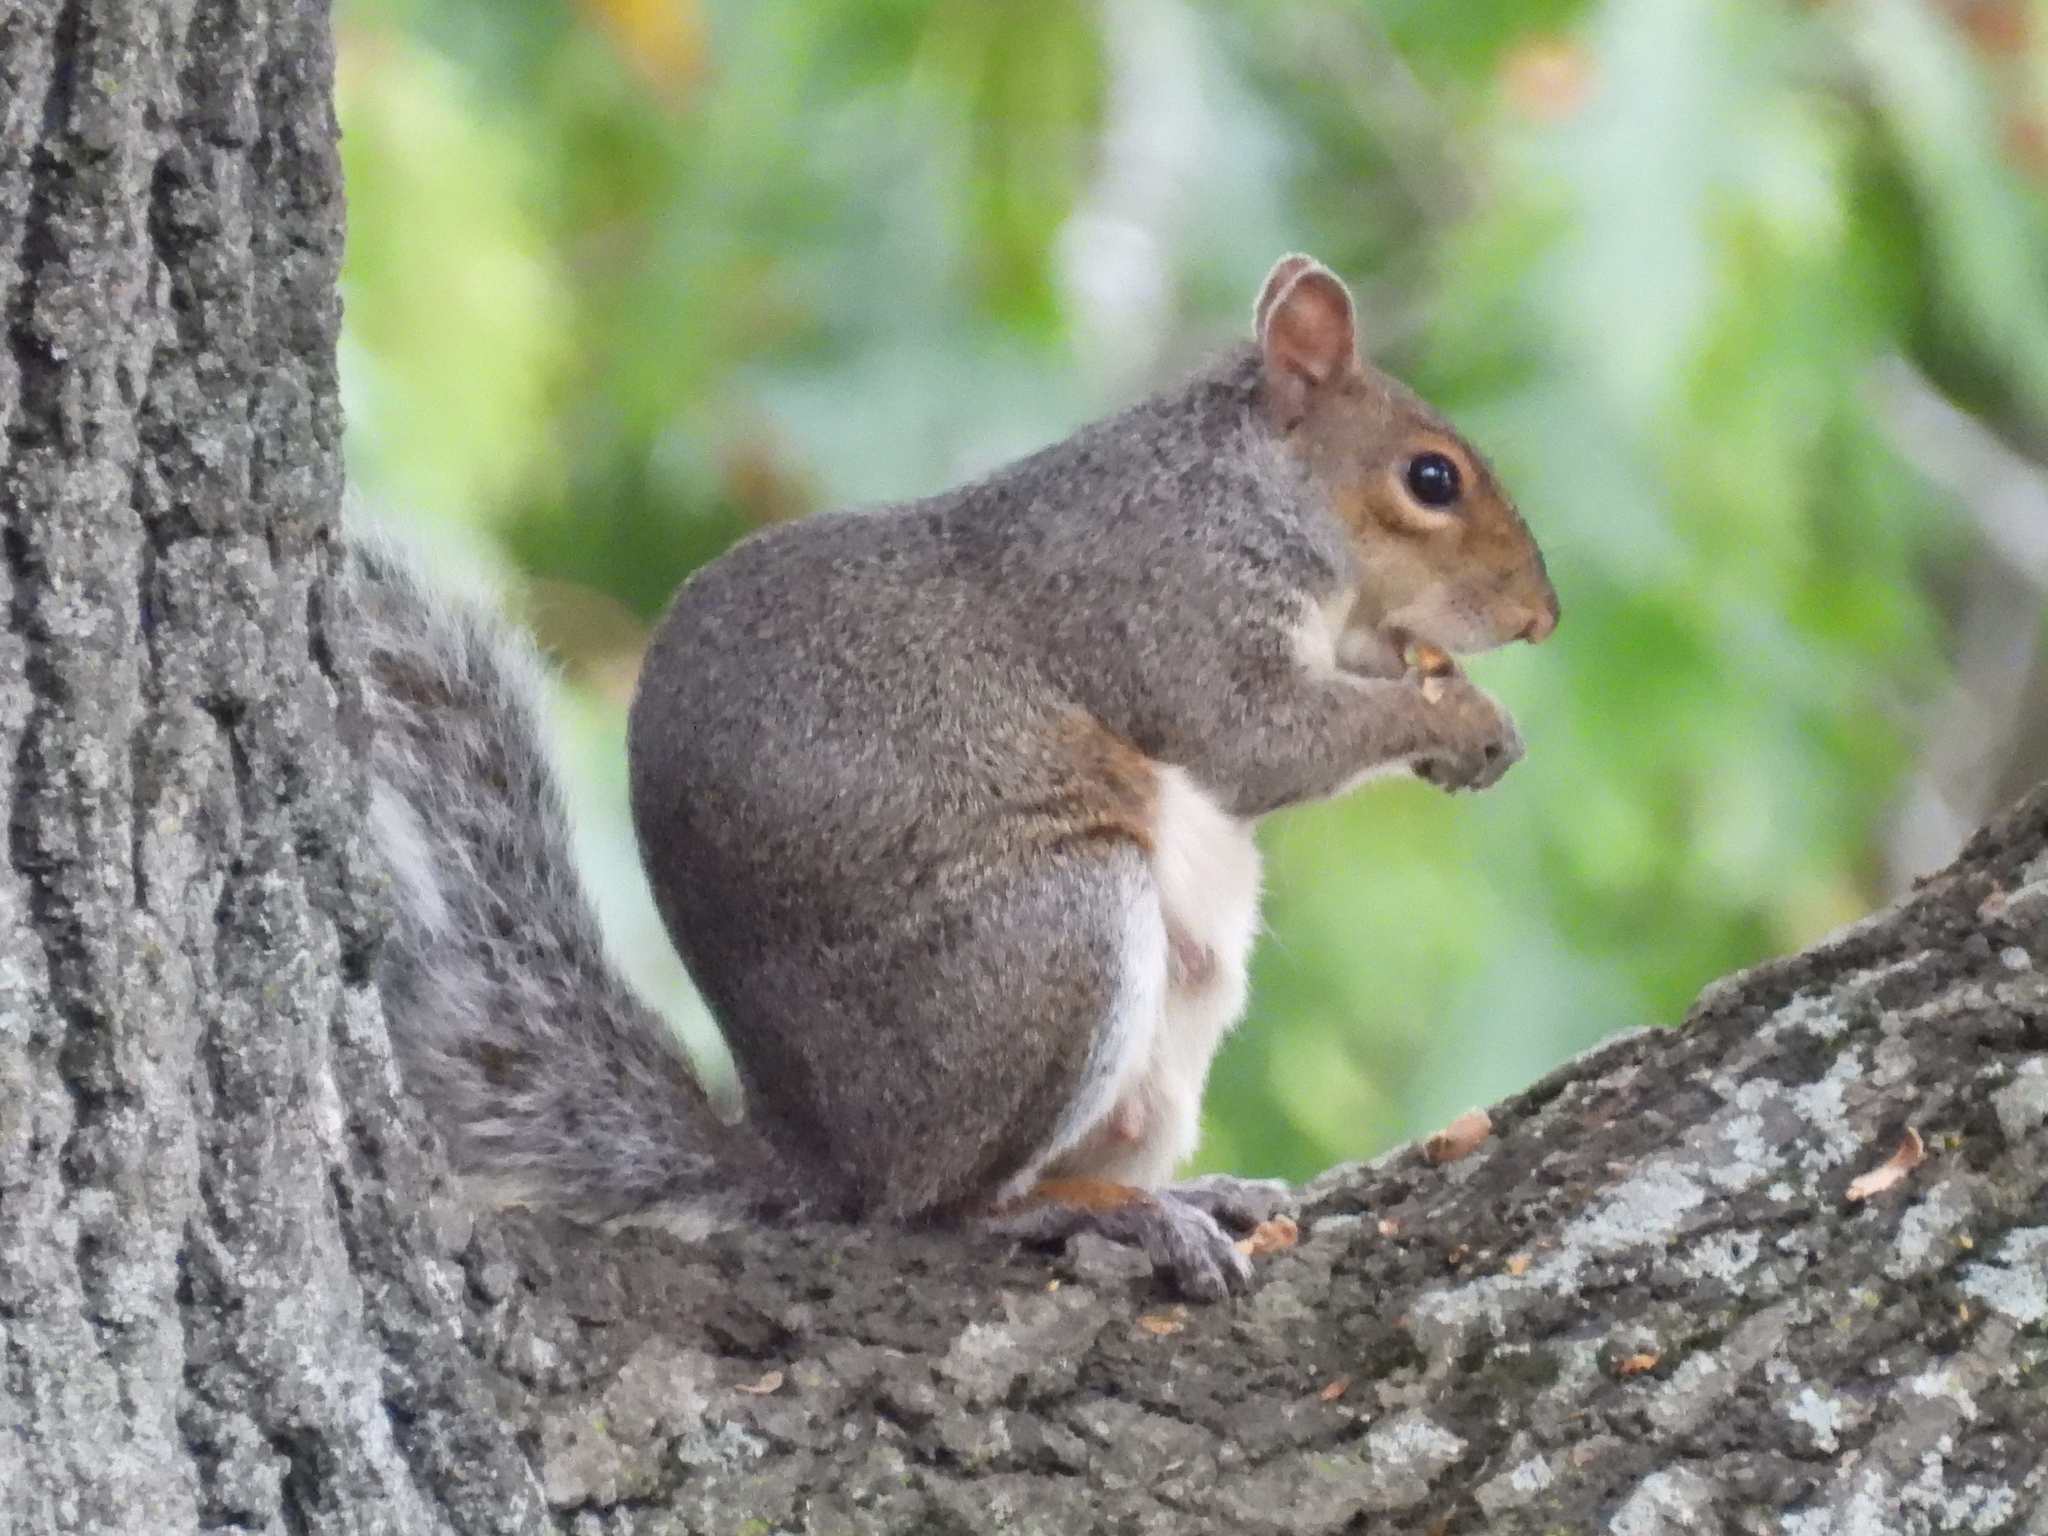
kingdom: Animalia
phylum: Chordata
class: Mammalia
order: Rodentia
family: Sciuridae
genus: Sciurus
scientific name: Sciurus carolinensis
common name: Eastern gray squirrel
